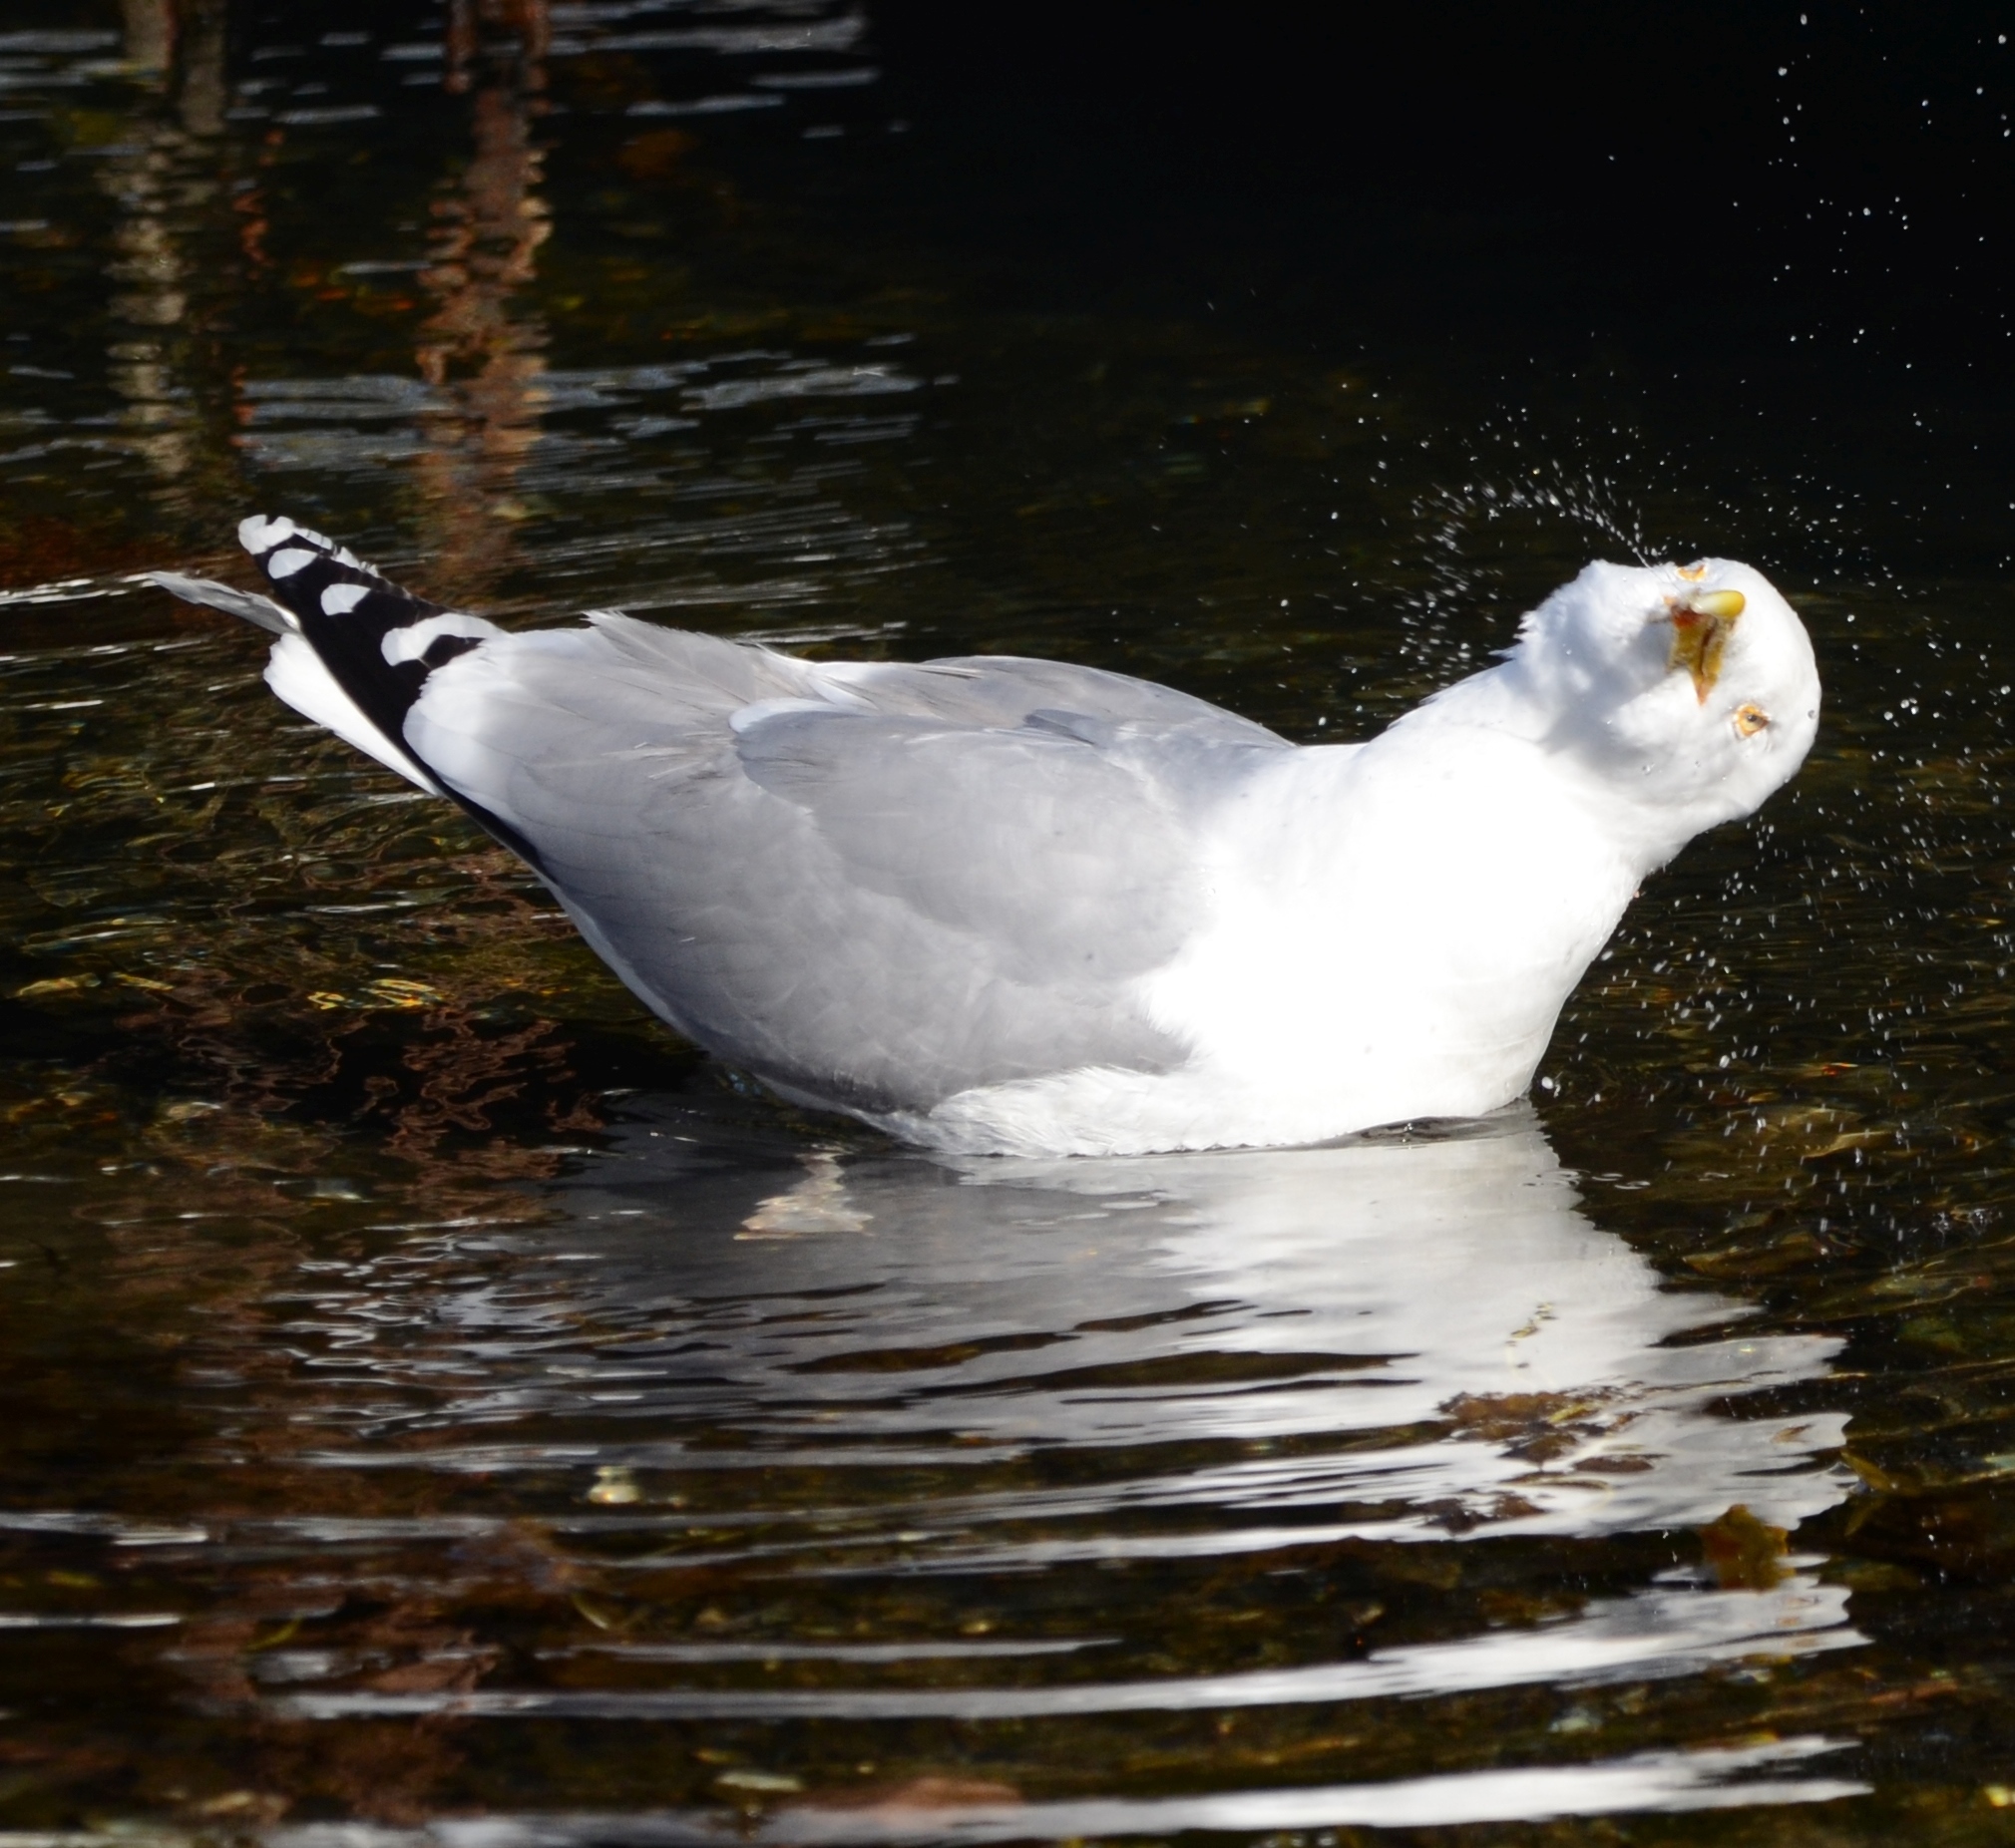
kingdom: Animalia
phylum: Chordata
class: Aves
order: Charadriiformes
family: Laridae
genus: Larus
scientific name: Larus argentatus
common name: Herring gull
